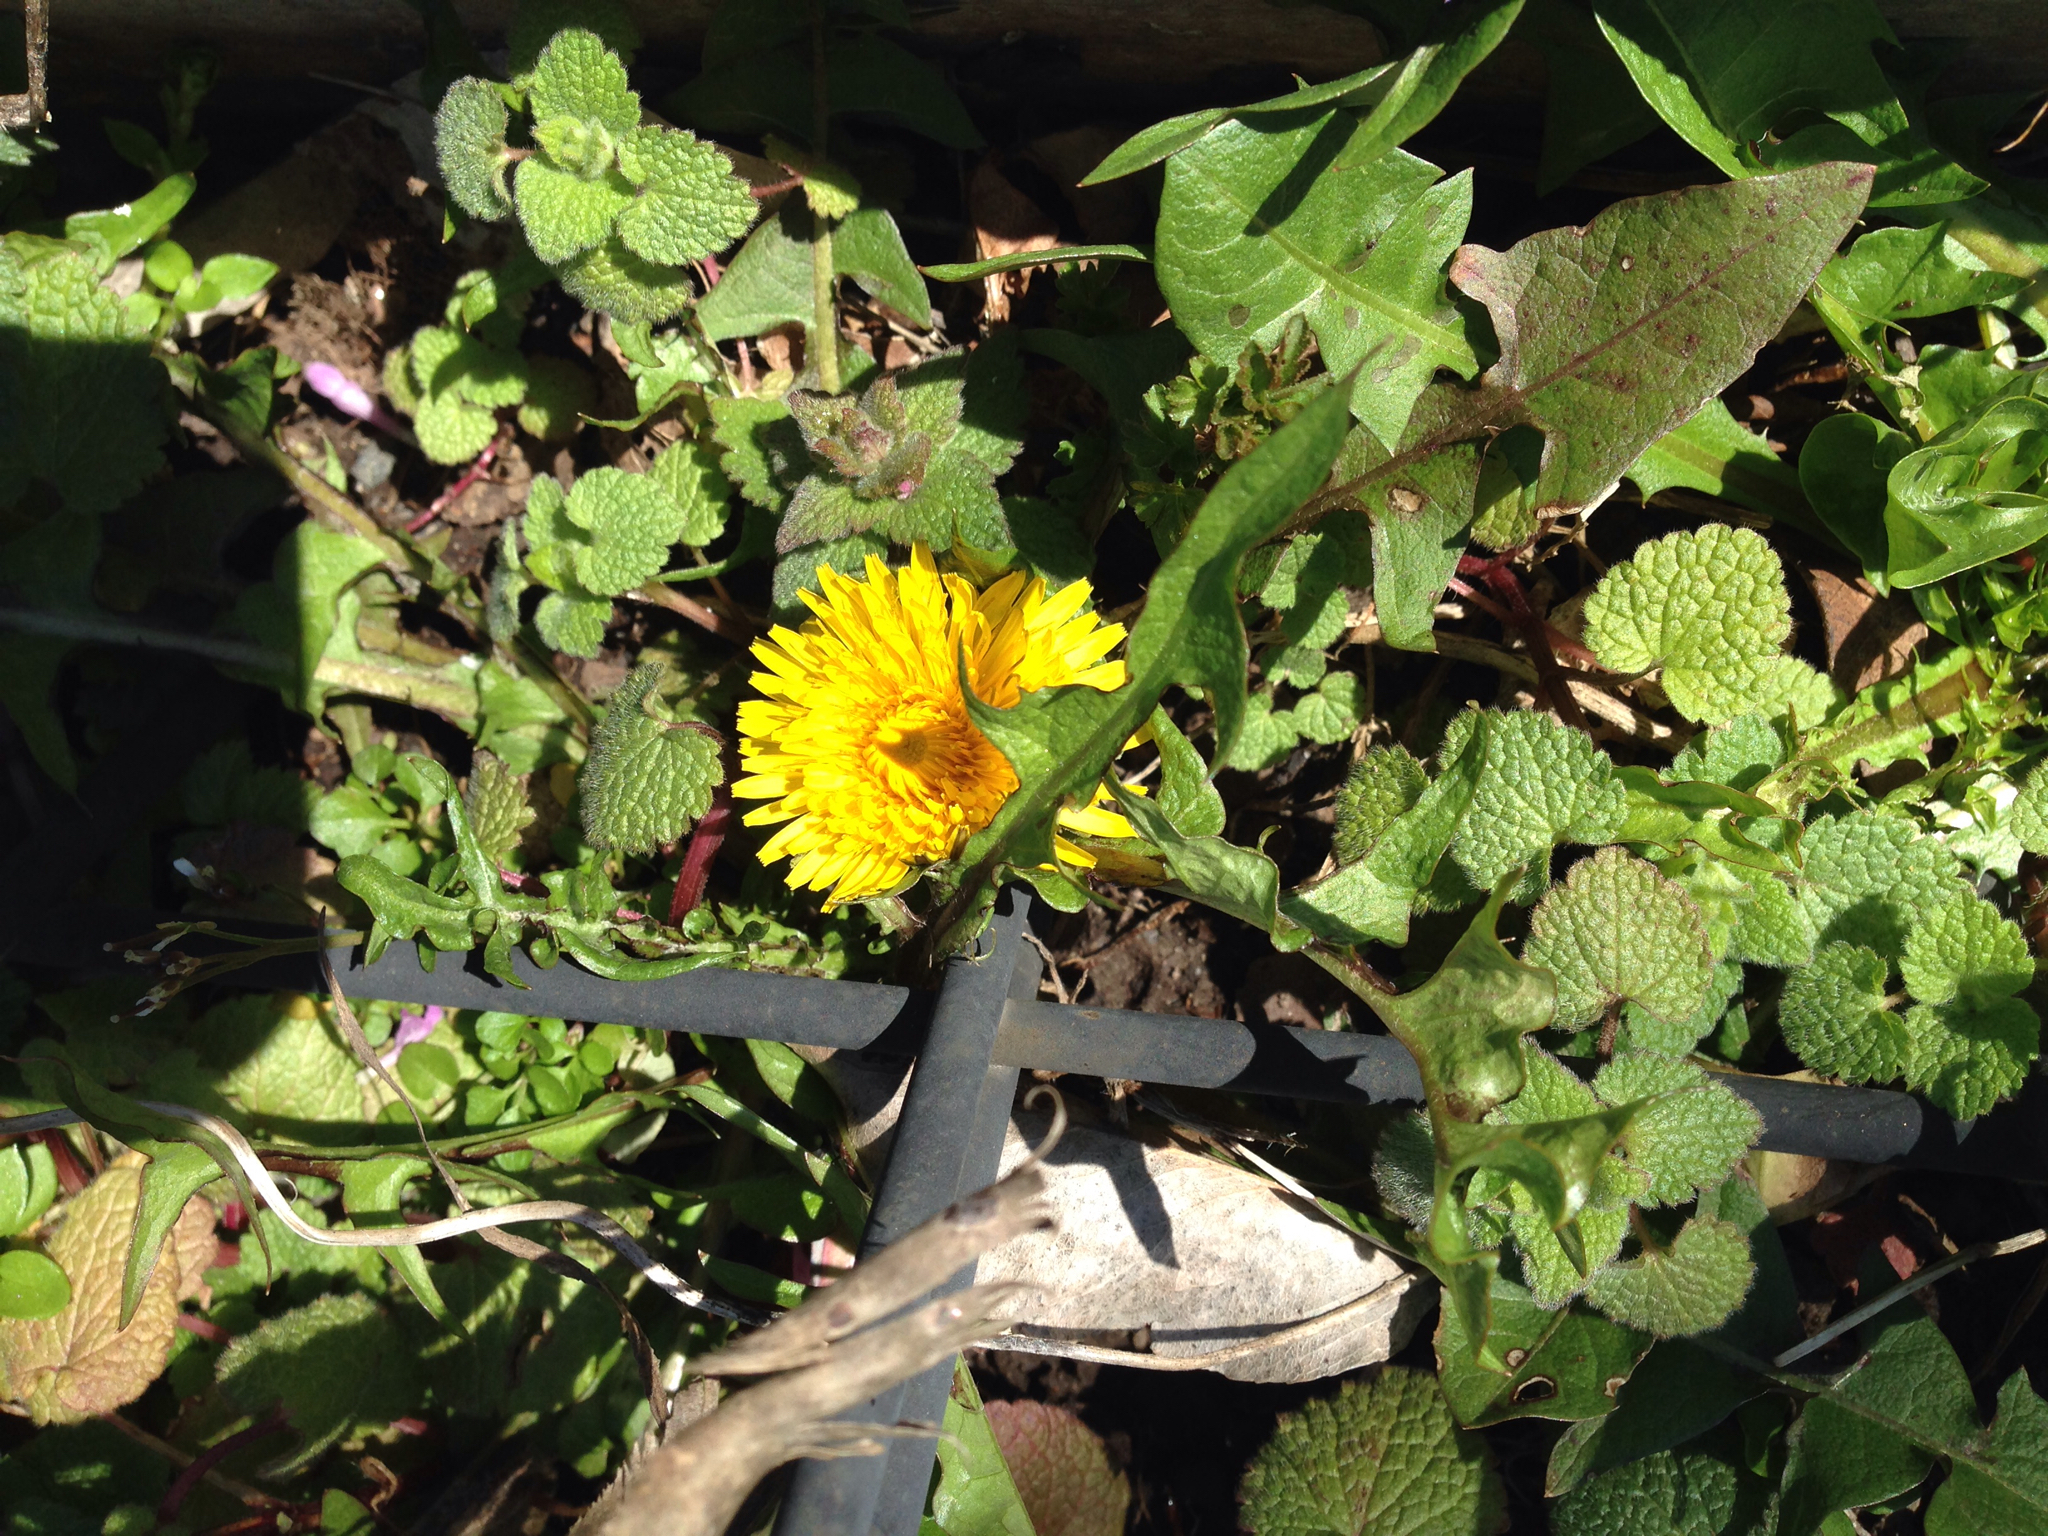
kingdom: Plantae
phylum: Tracheophyta
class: Magnoliopsida
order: Asterales
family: Asteraceae
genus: Taraxacum
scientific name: Taraxacum officinale
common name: Common dandelion
